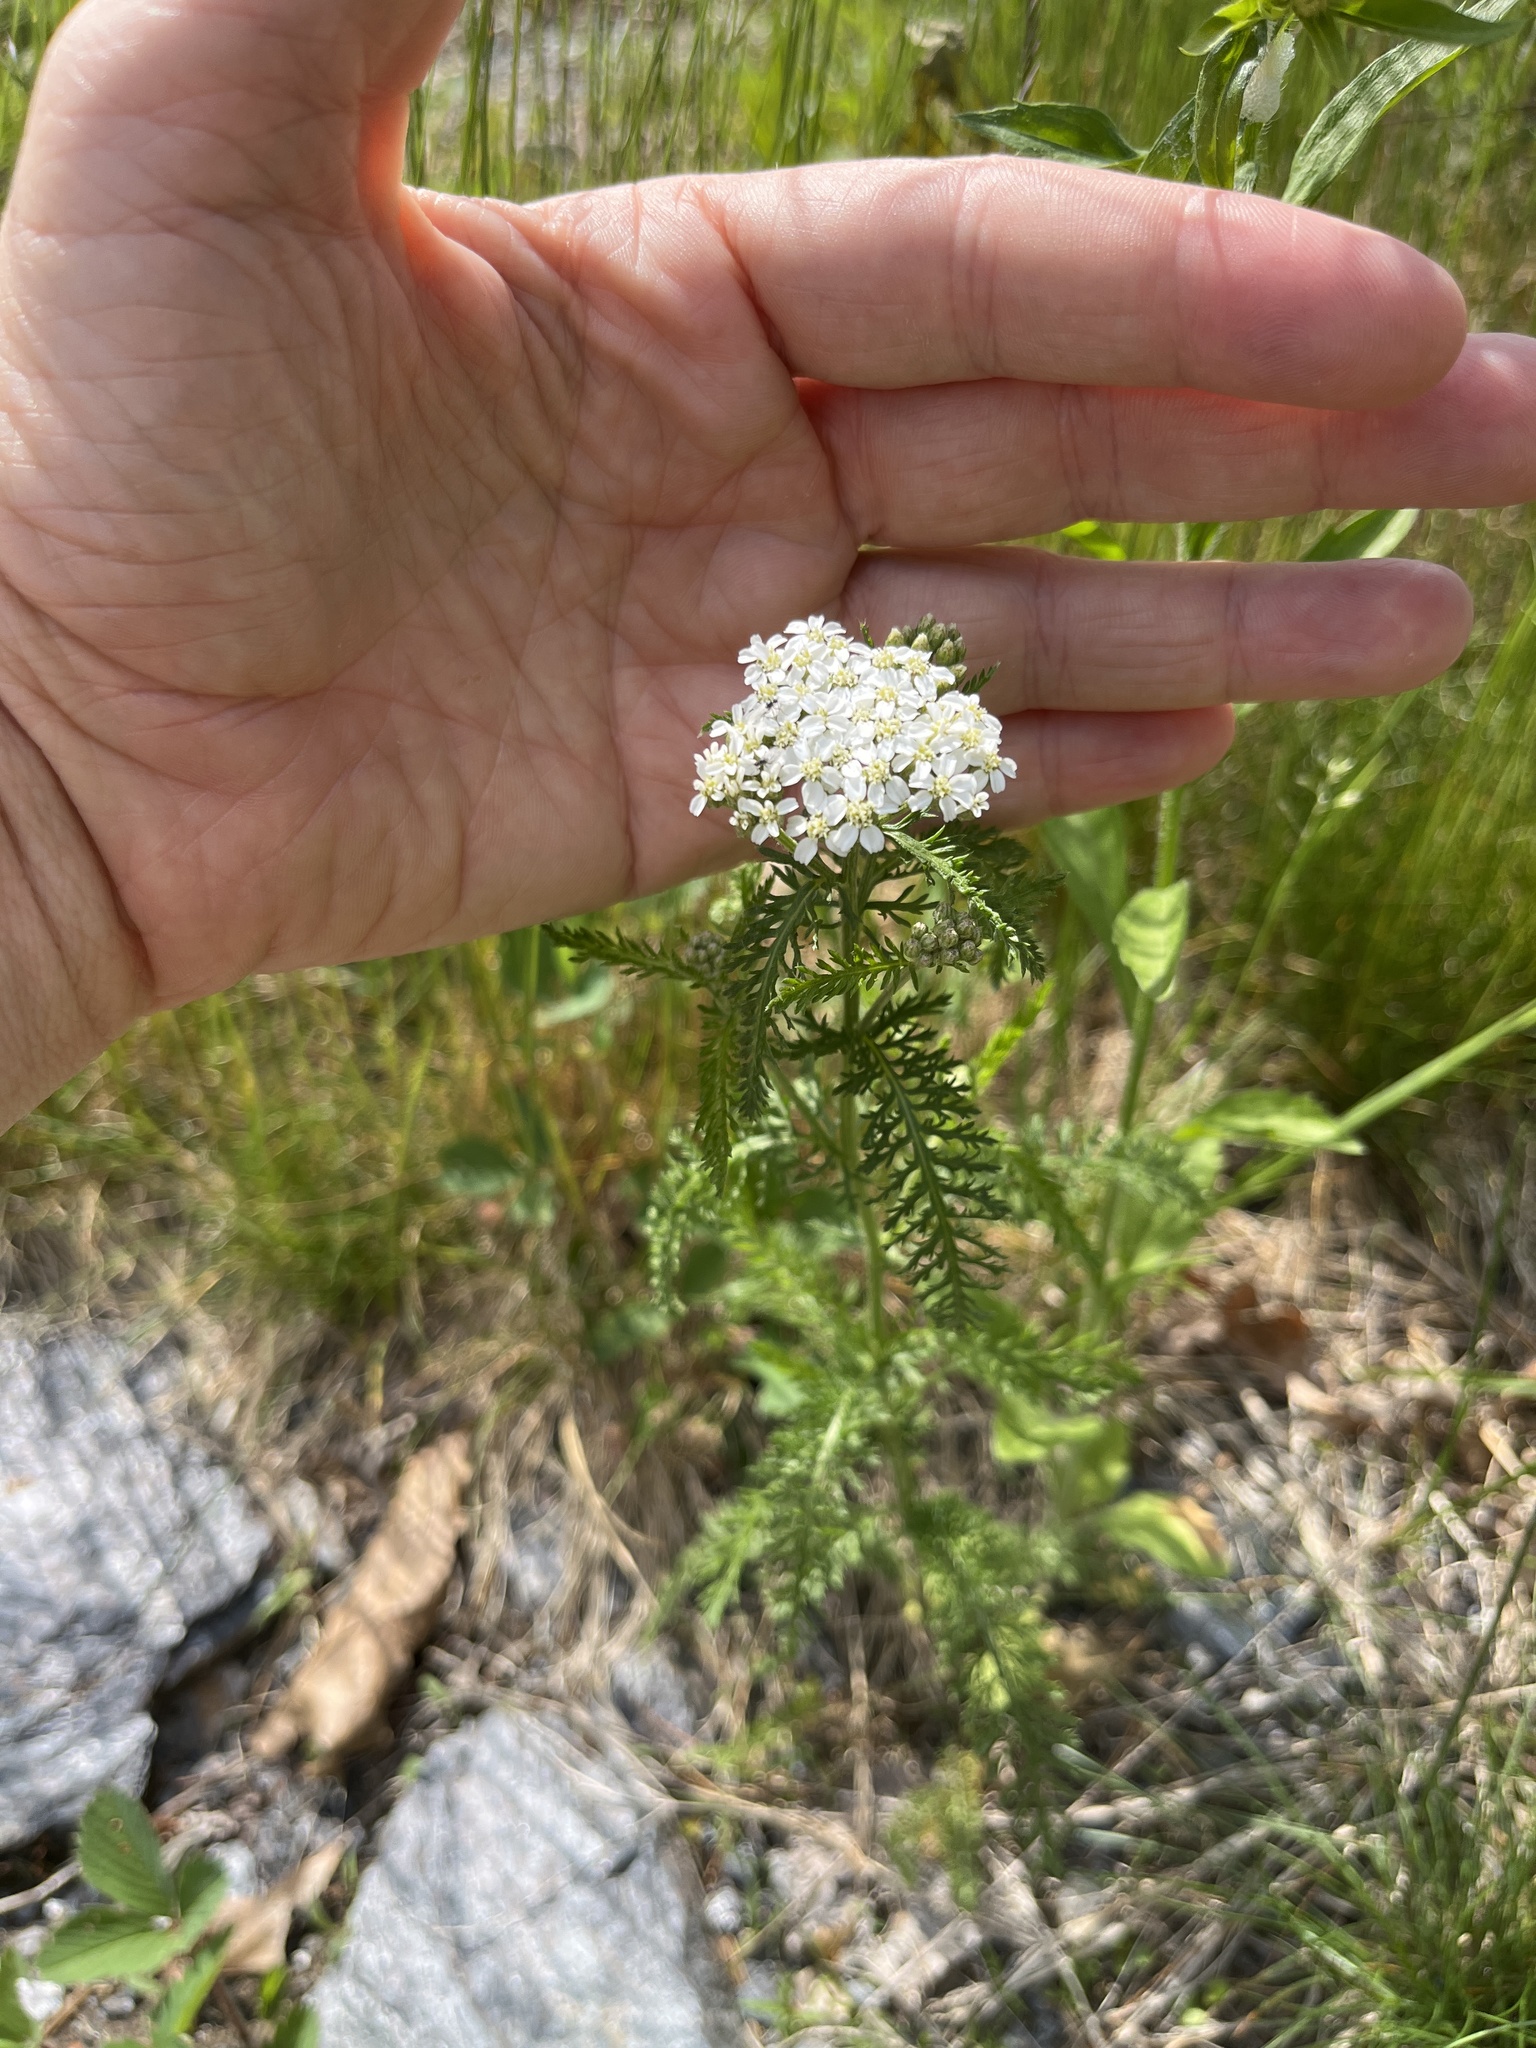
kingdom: Plantae
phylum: Tracheophyta
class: Magnoliopsida
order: Asterales
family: Asteraceae
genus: Achillea
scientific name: Achillea millefolium
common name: Yarrow
